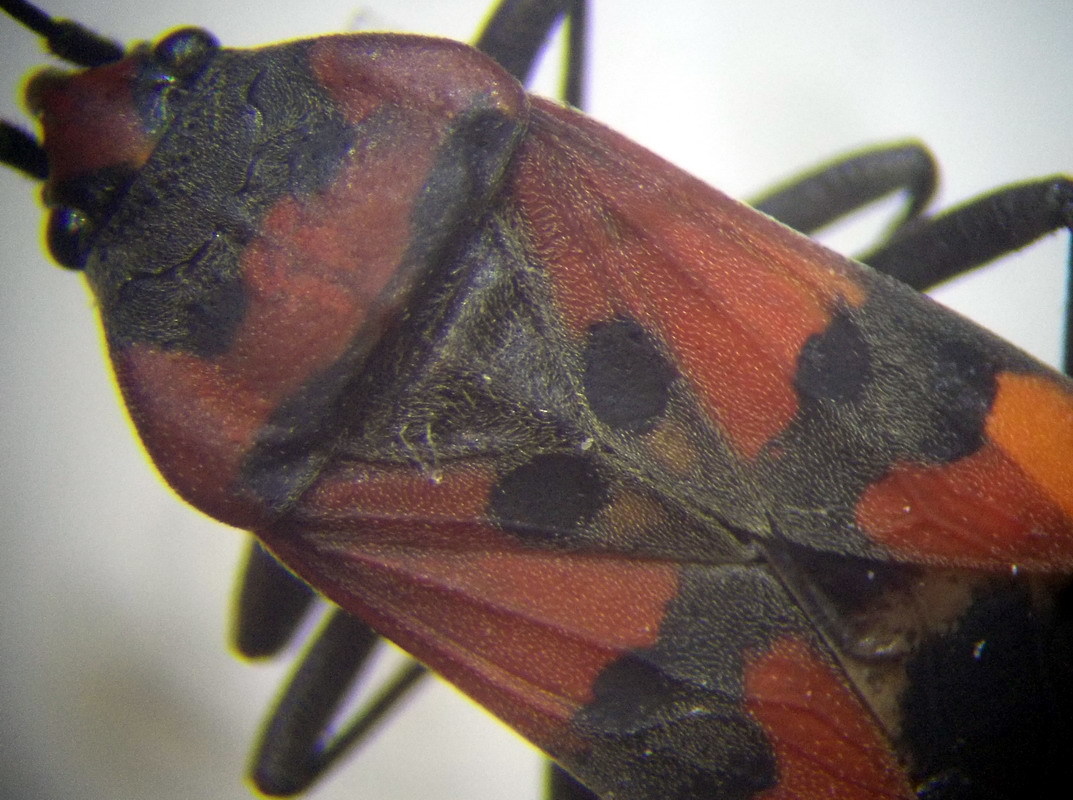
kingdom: Animalia
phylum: Arthropoda
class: Insecta
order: Hemiptera
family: Lygaeidae
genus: Lygaeus
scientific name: Lygaeus simulans
